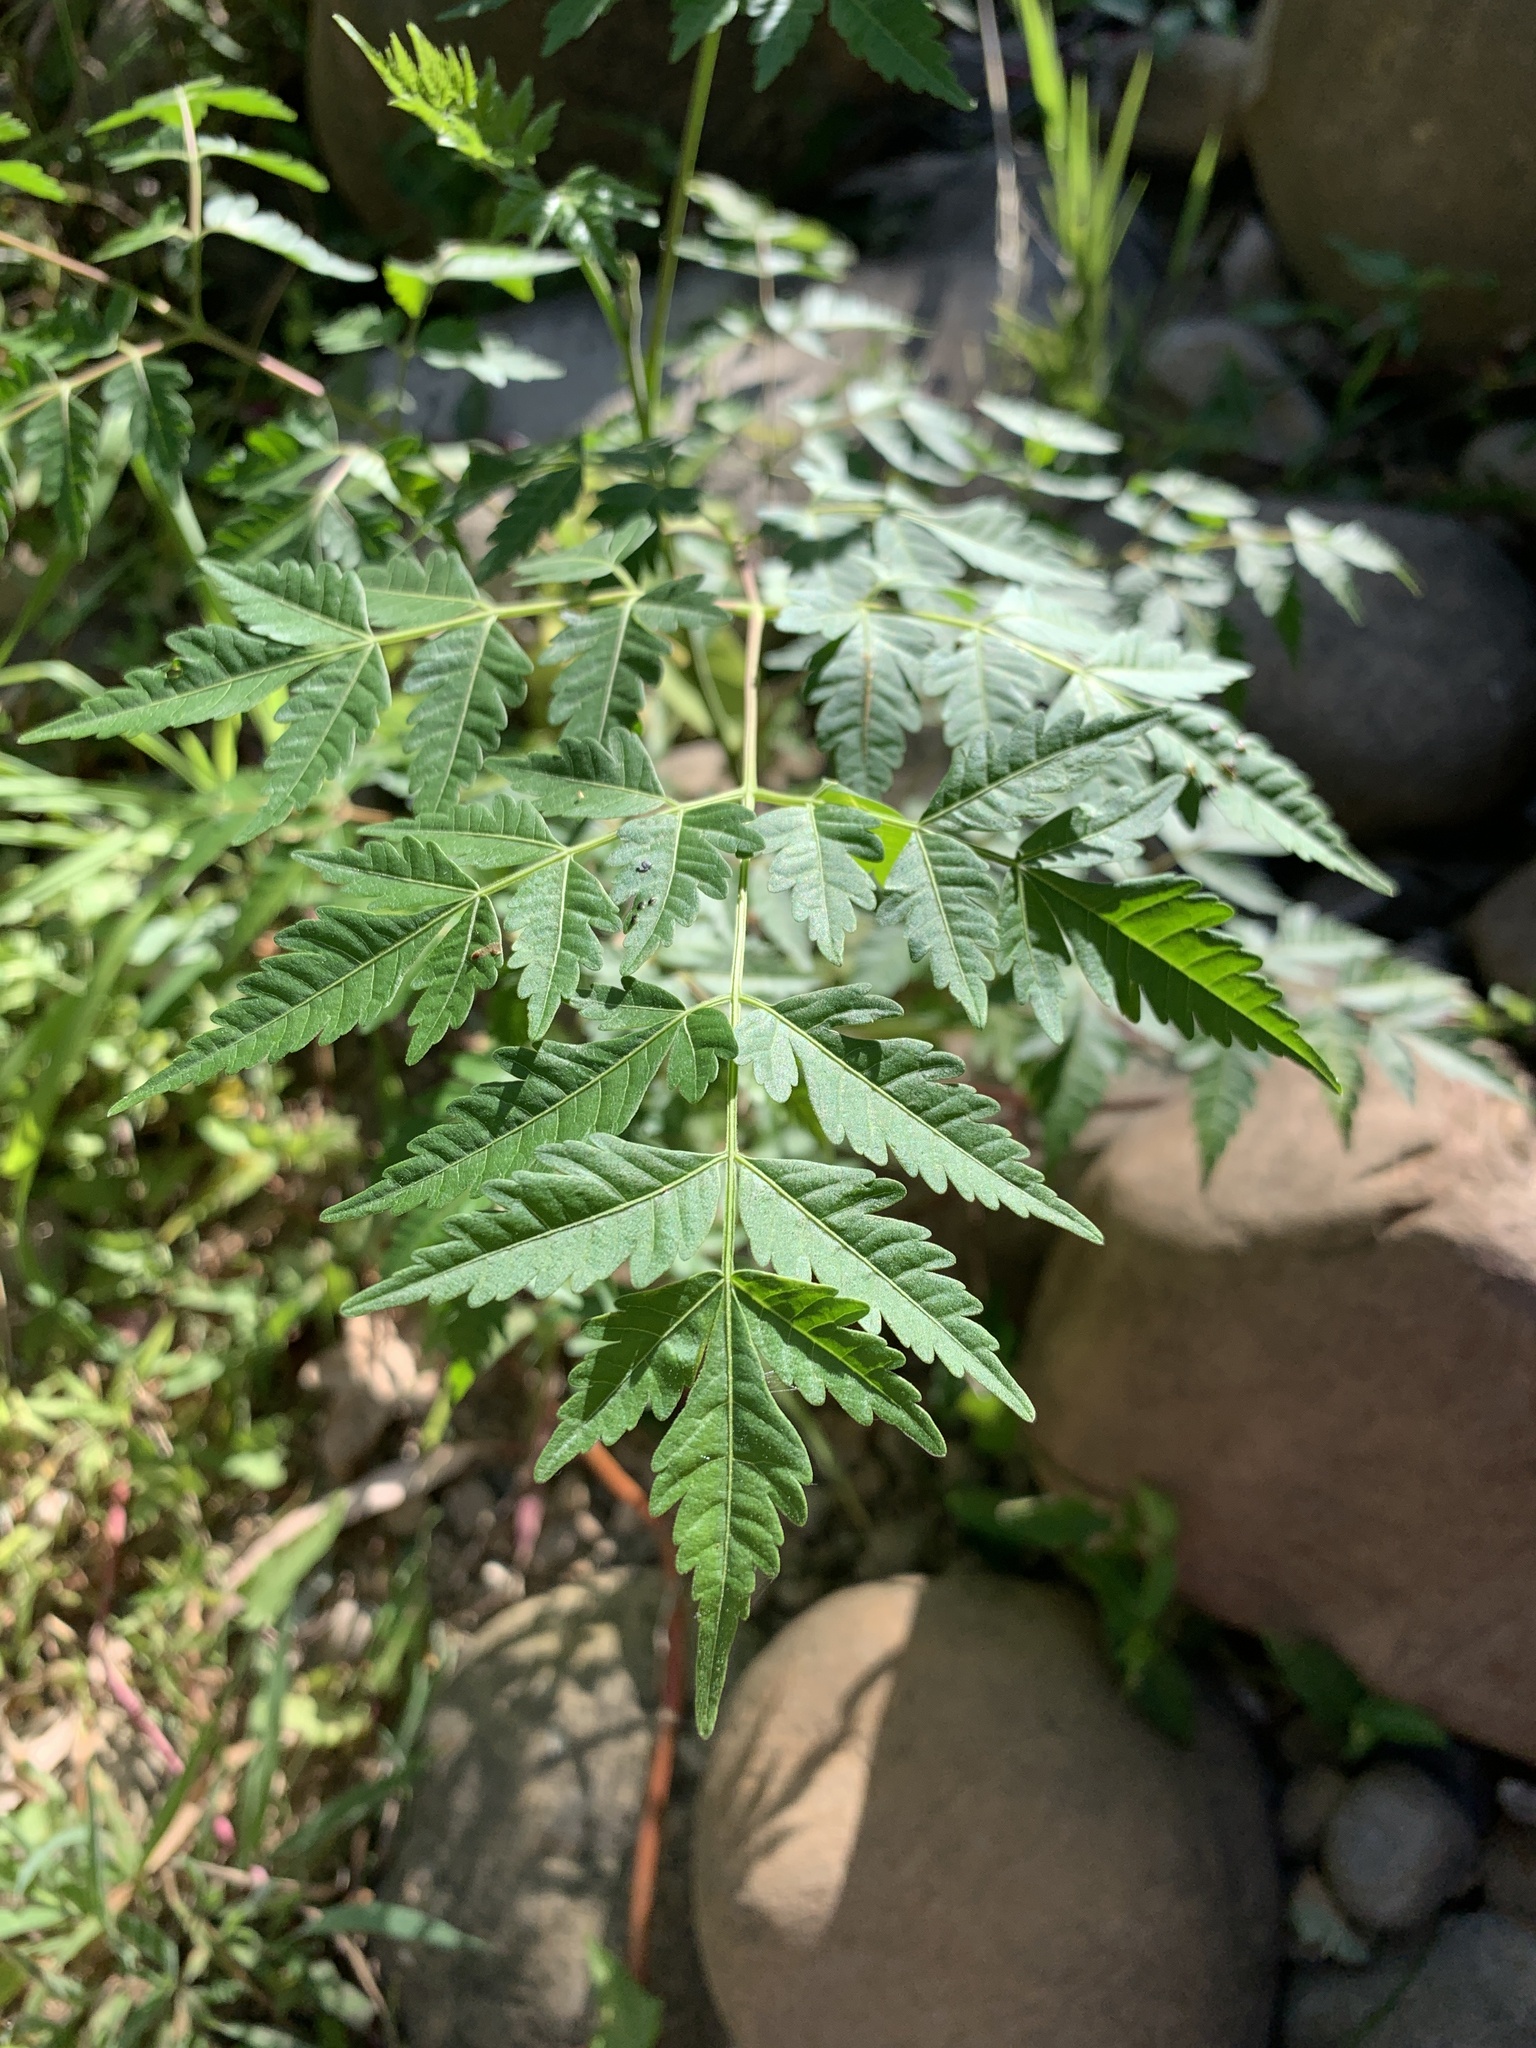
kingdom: Plantae
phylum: Tracheophyta
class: Magnoliopsida
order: Sapindales
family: Meliaceae
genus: Melia
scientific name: Melia azedarach
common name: Chinaberrytree
